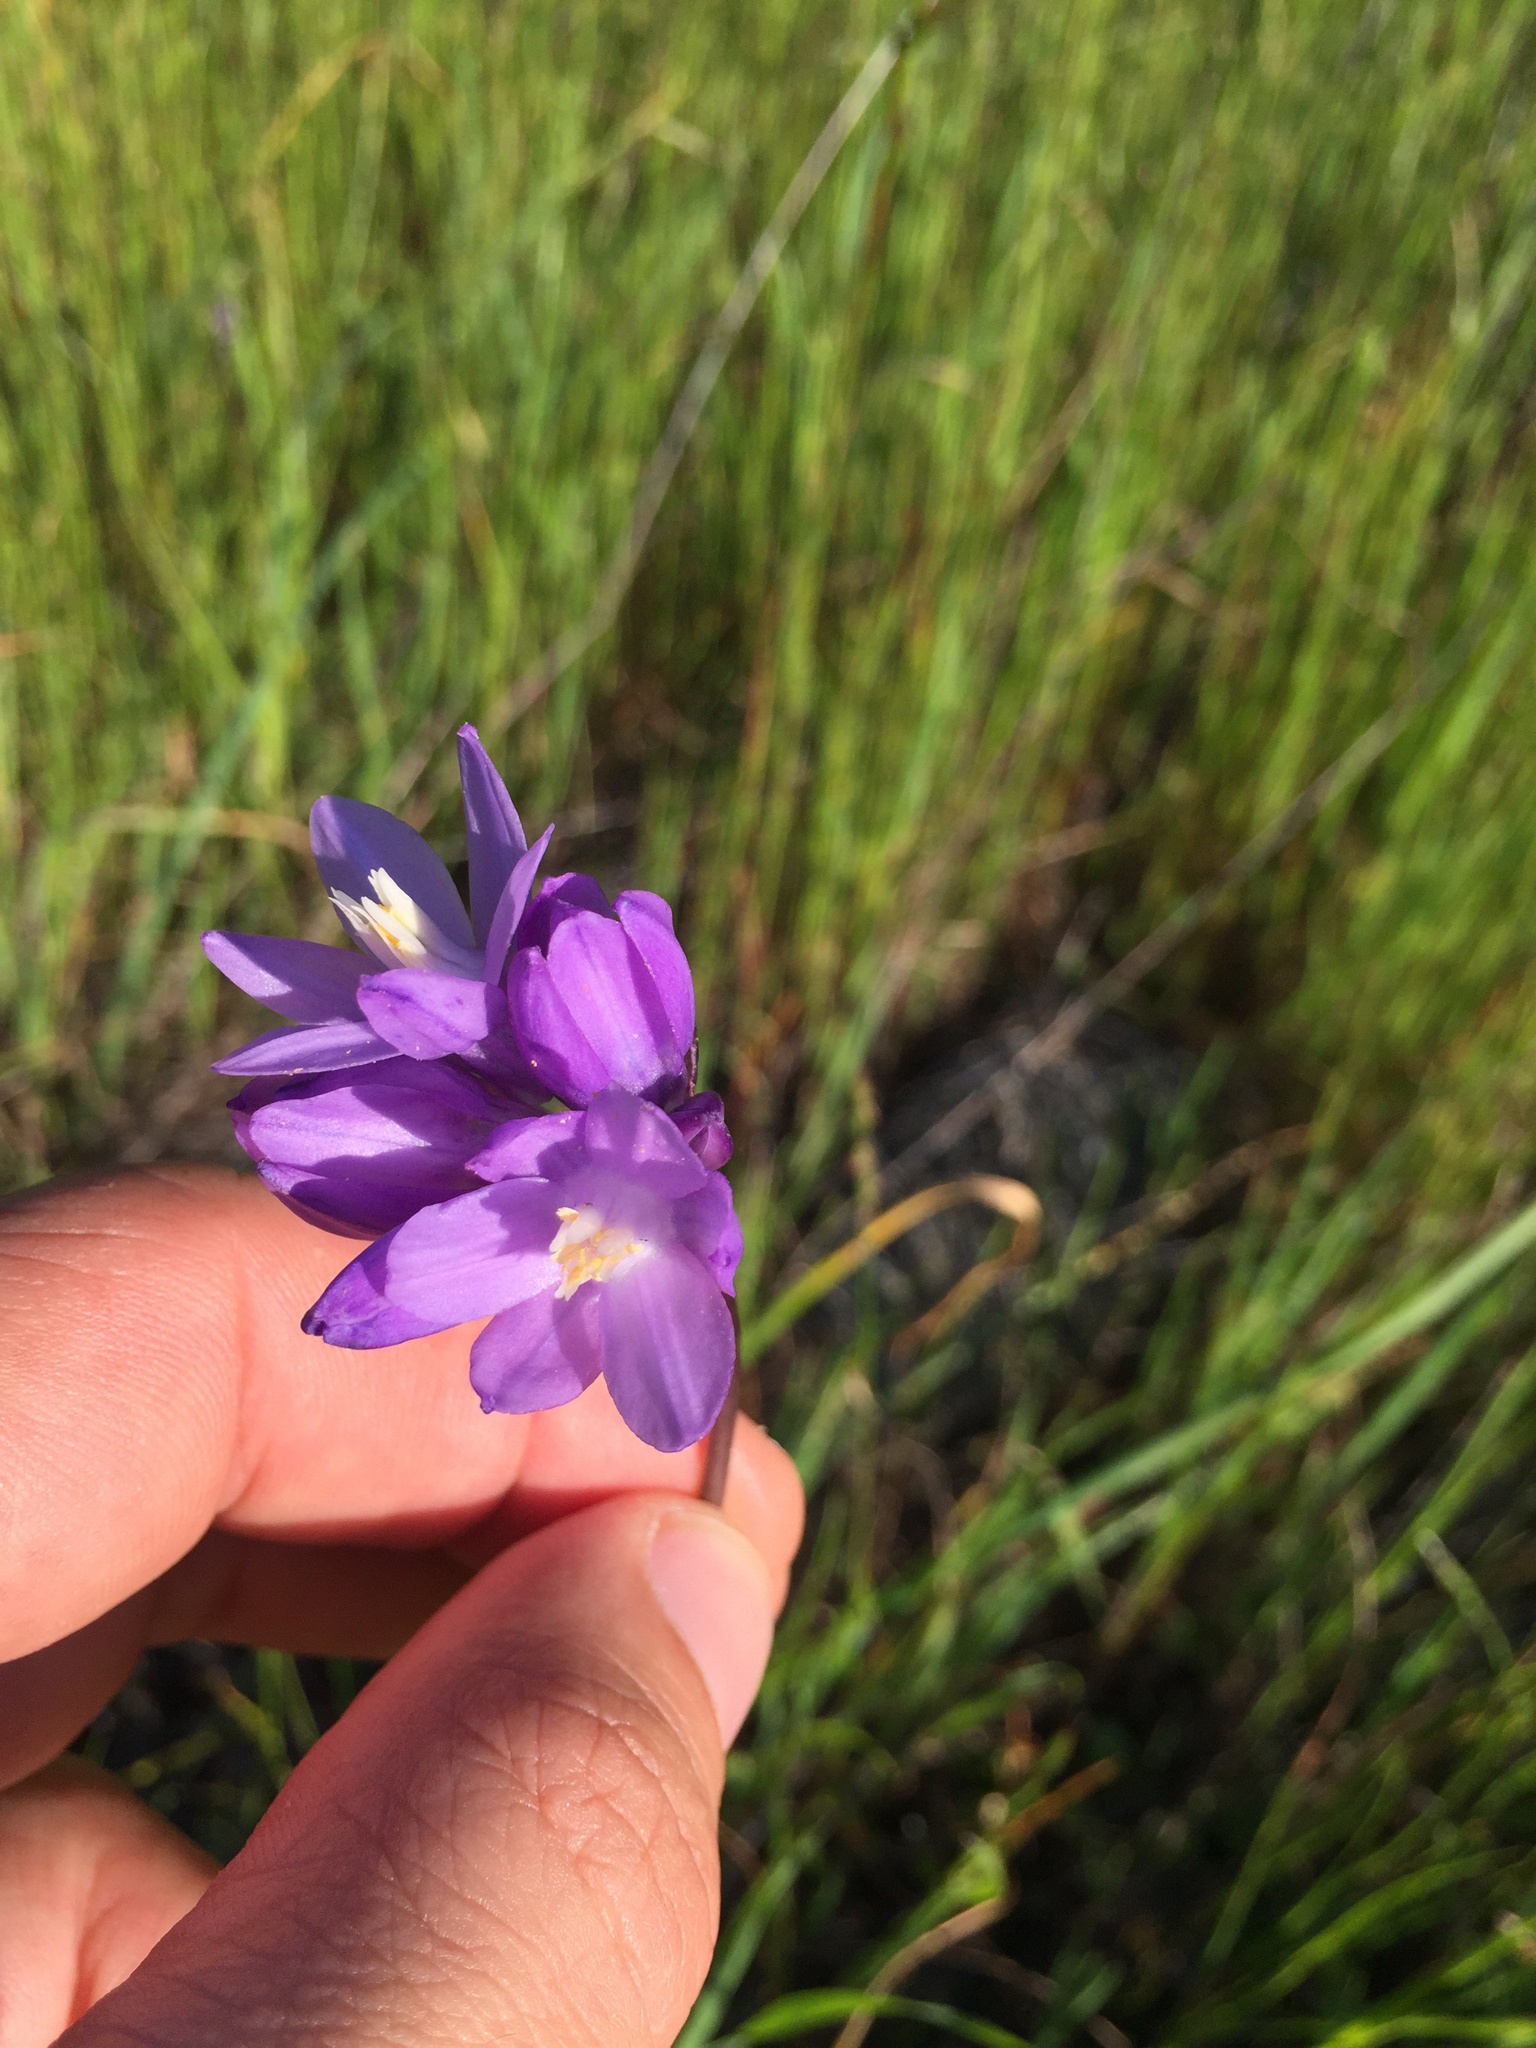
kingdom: Plantae
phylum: Tracheophyta
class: Liliopsida
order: Asparagales
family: Asparagaceae
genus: Dipterostemon
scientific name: Dipterostemon capitatus
